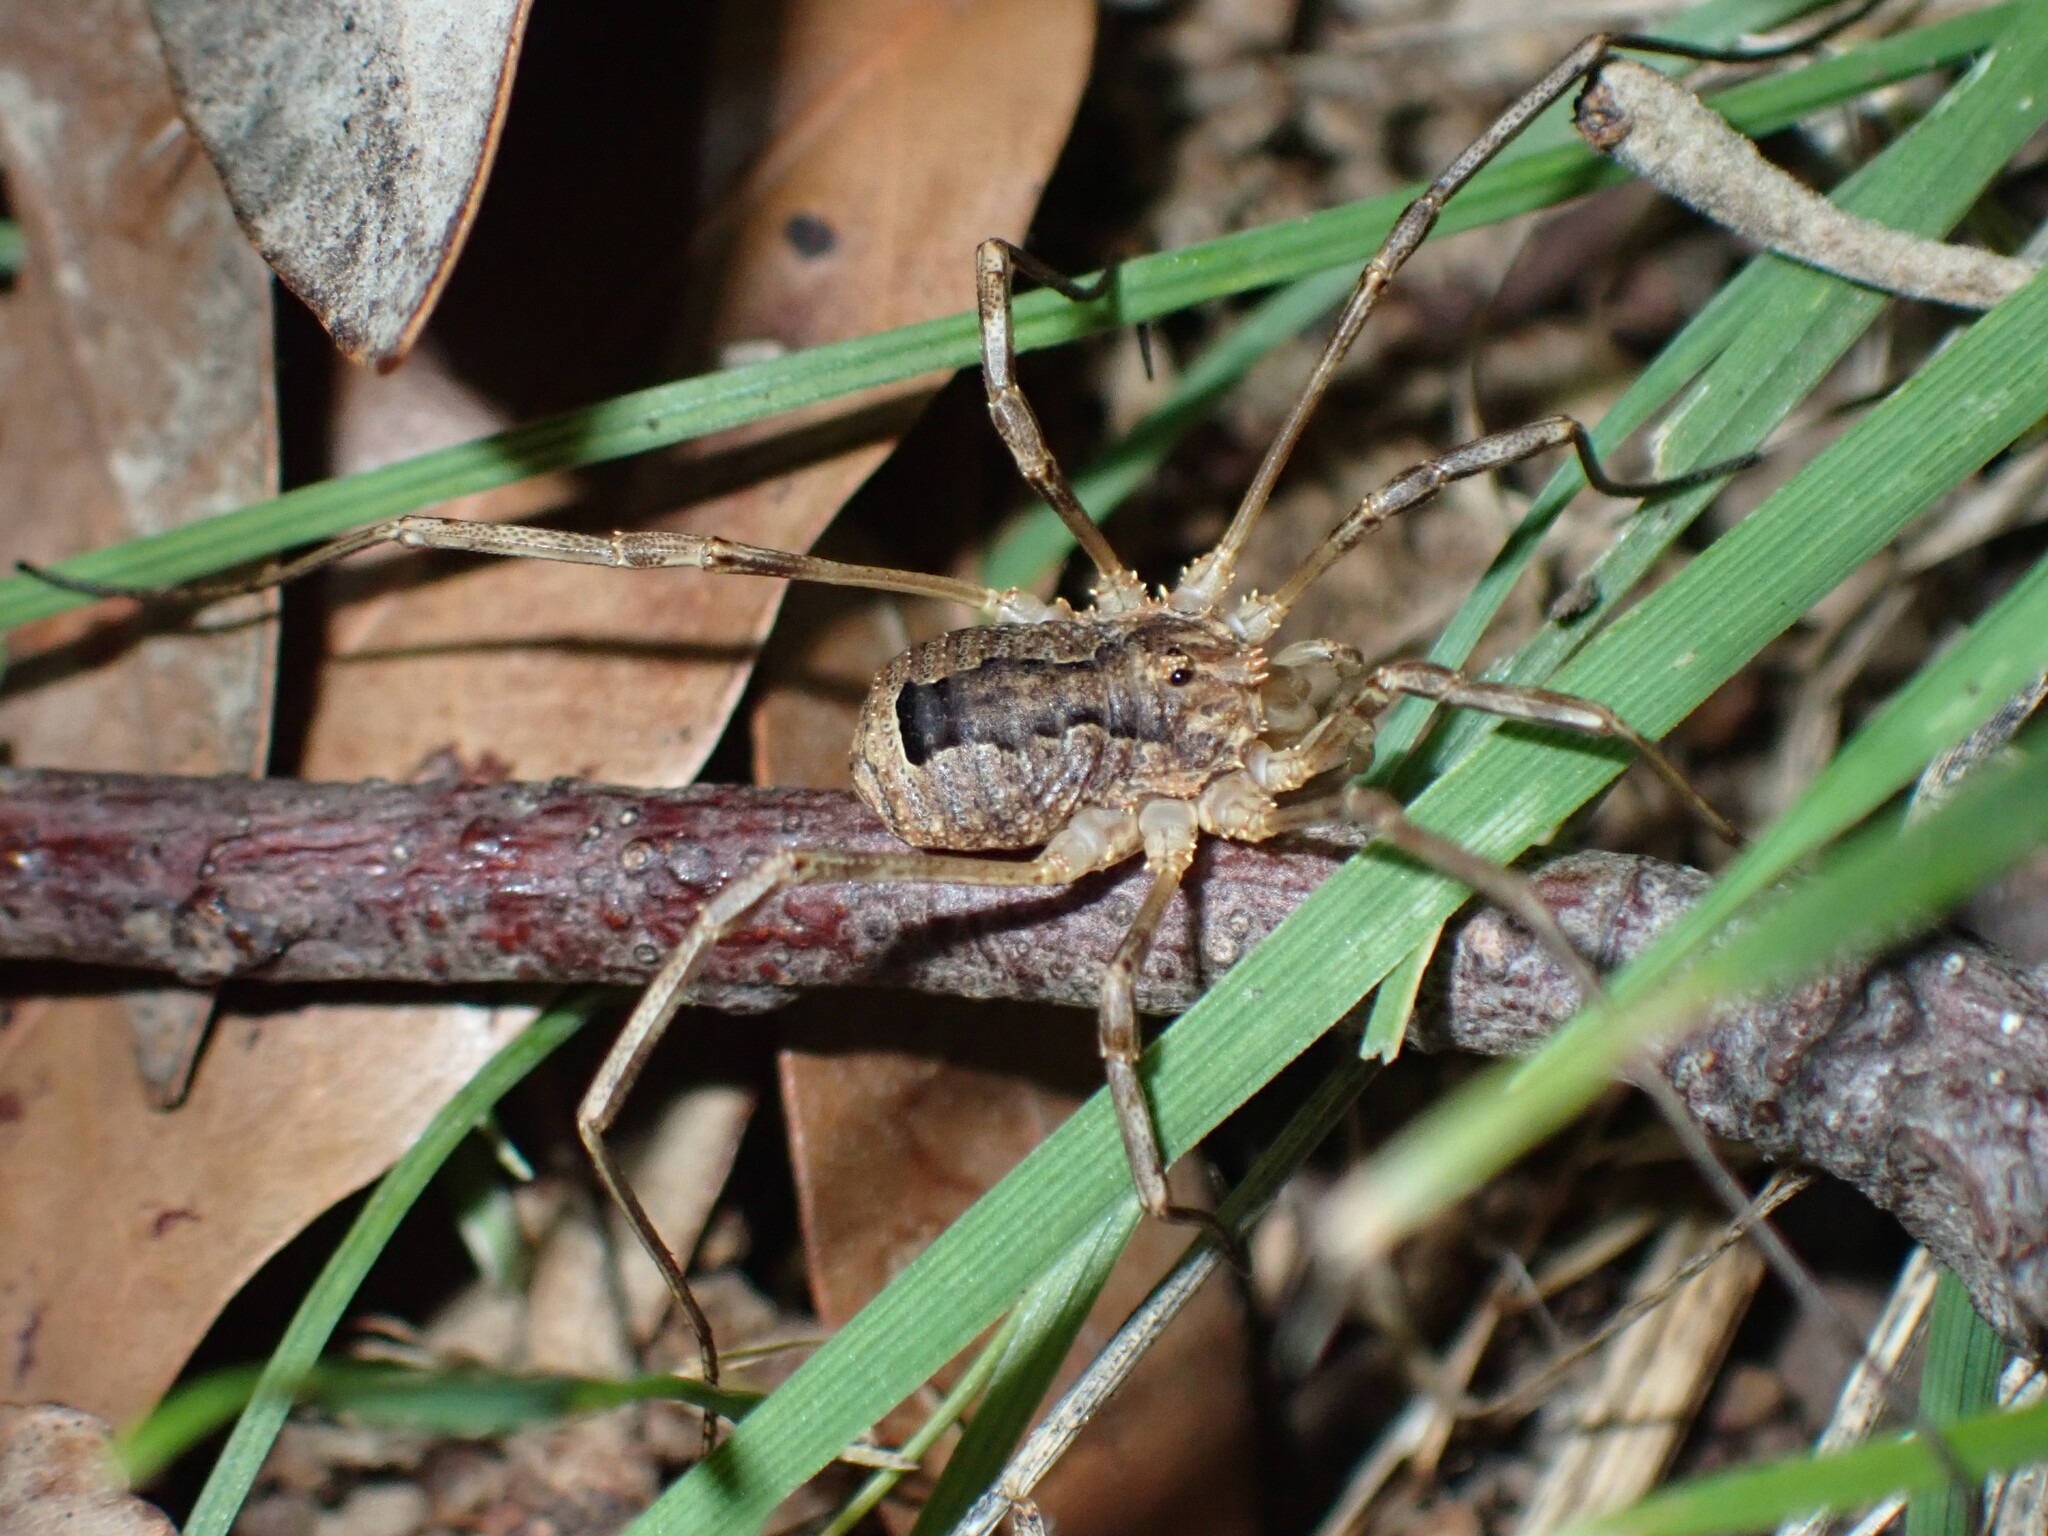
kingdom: Animalia
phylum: Arthropoda
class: Arachnida
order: Opiliones
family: Phalangiidae
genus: Odiellus
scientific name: Odiellus spinosus
